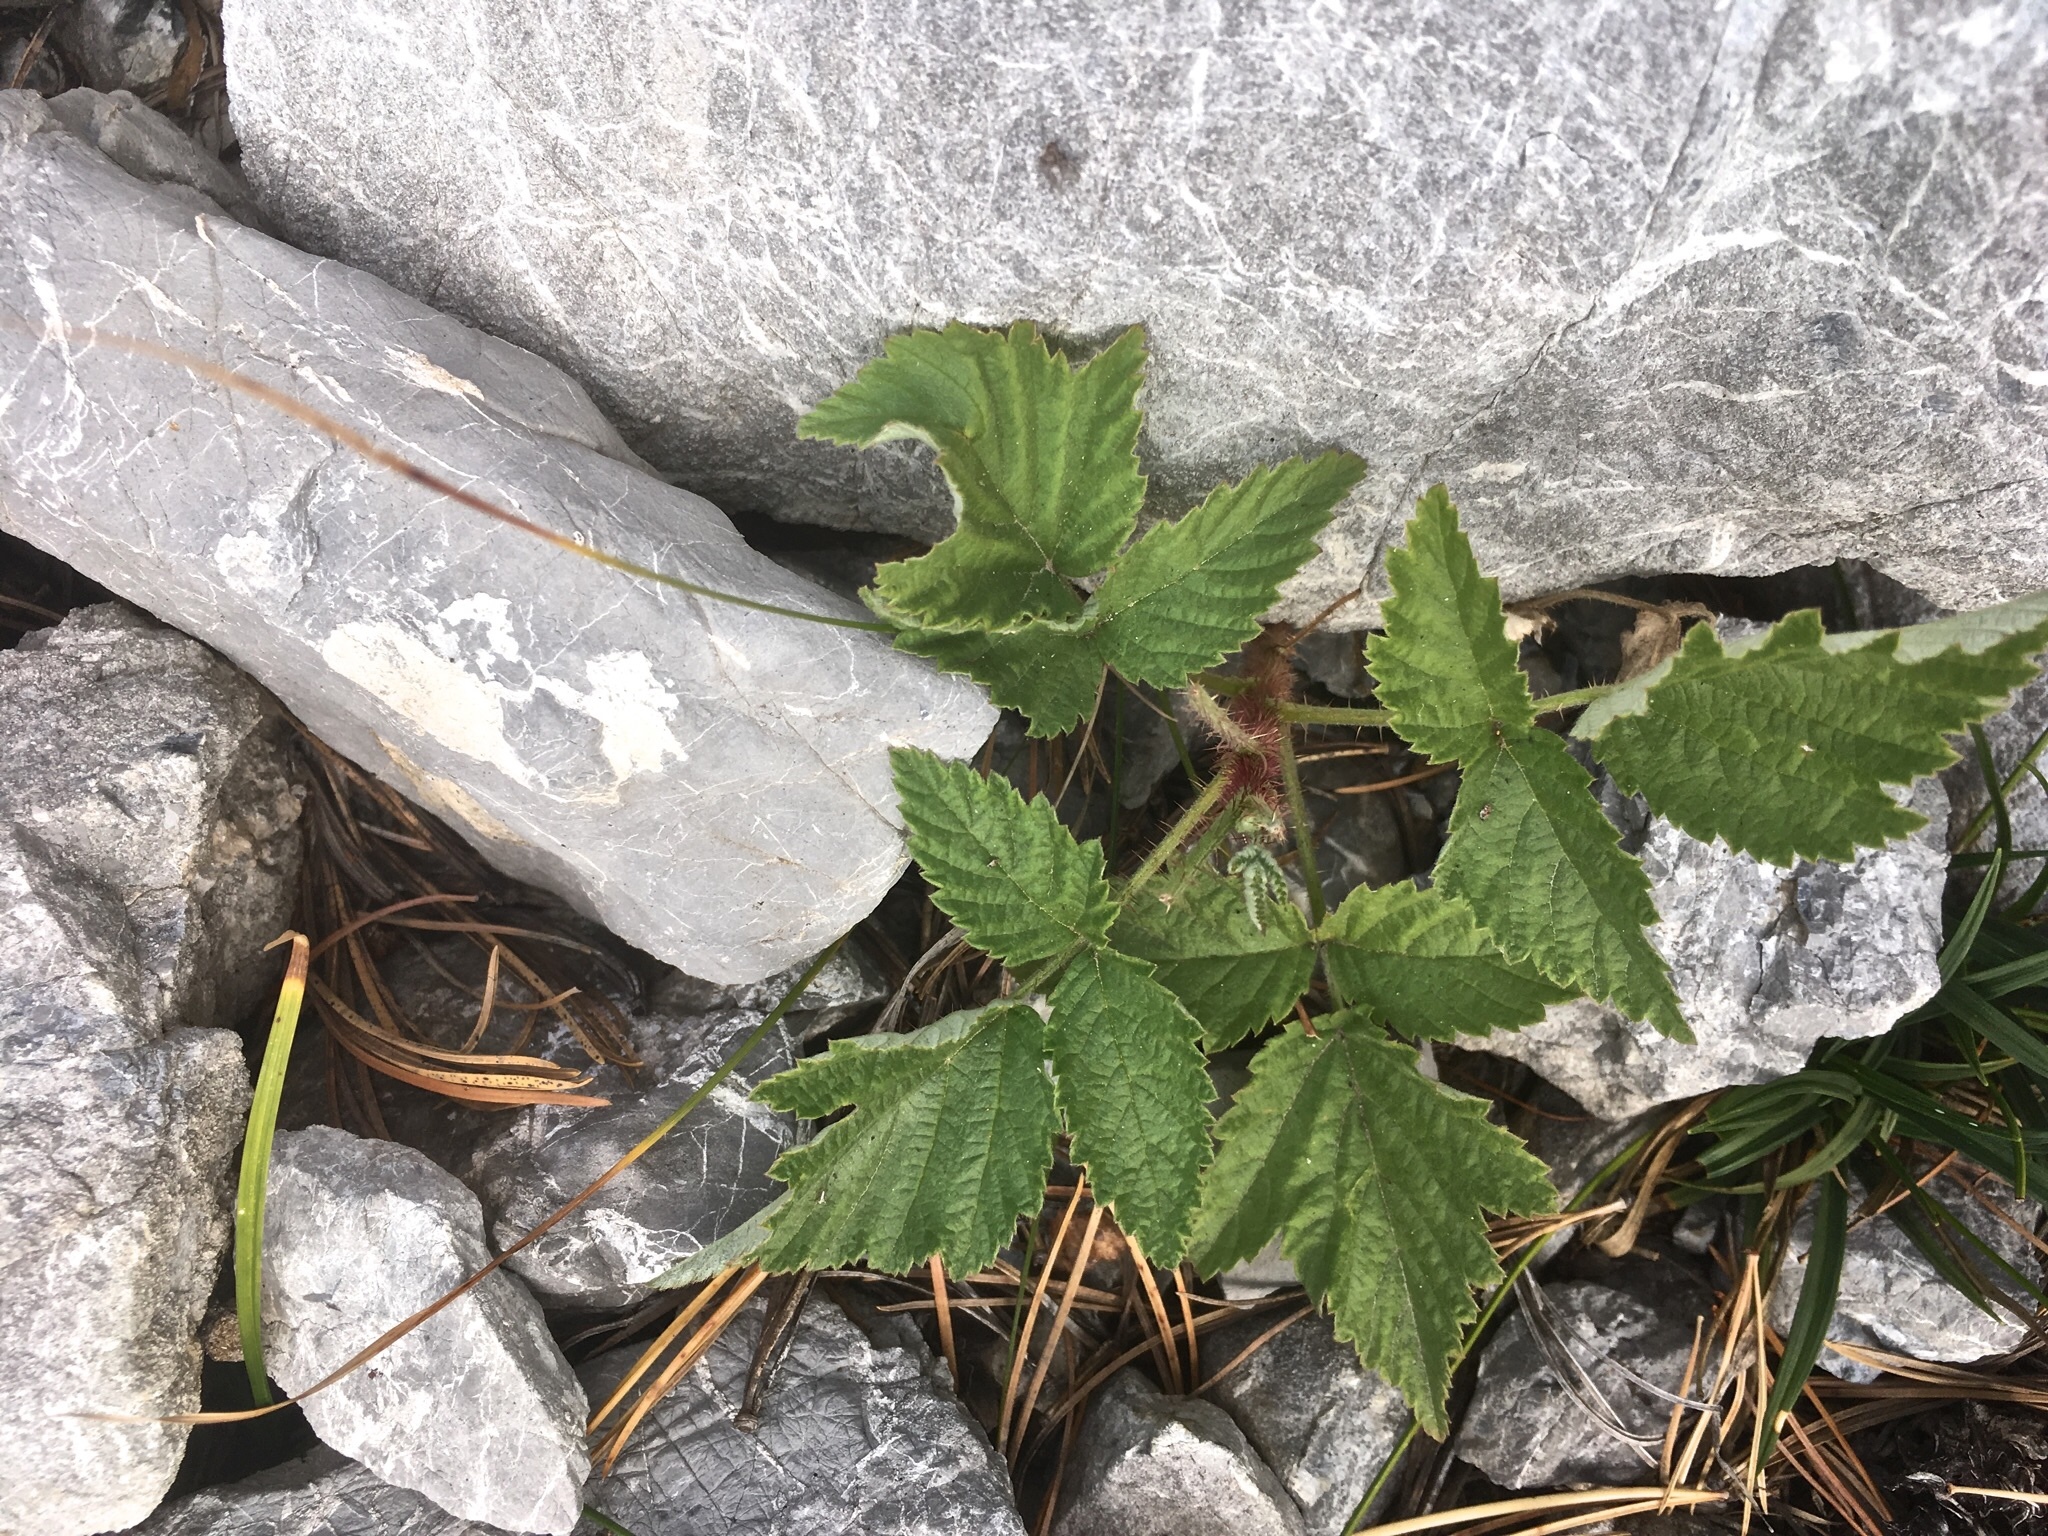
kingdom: Plantae
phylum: Tracheophyta
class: Magnoliopsida
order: Rosales
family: Rosaceae
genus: Rubus
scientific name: Rubus idaeus
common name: Raspberry
